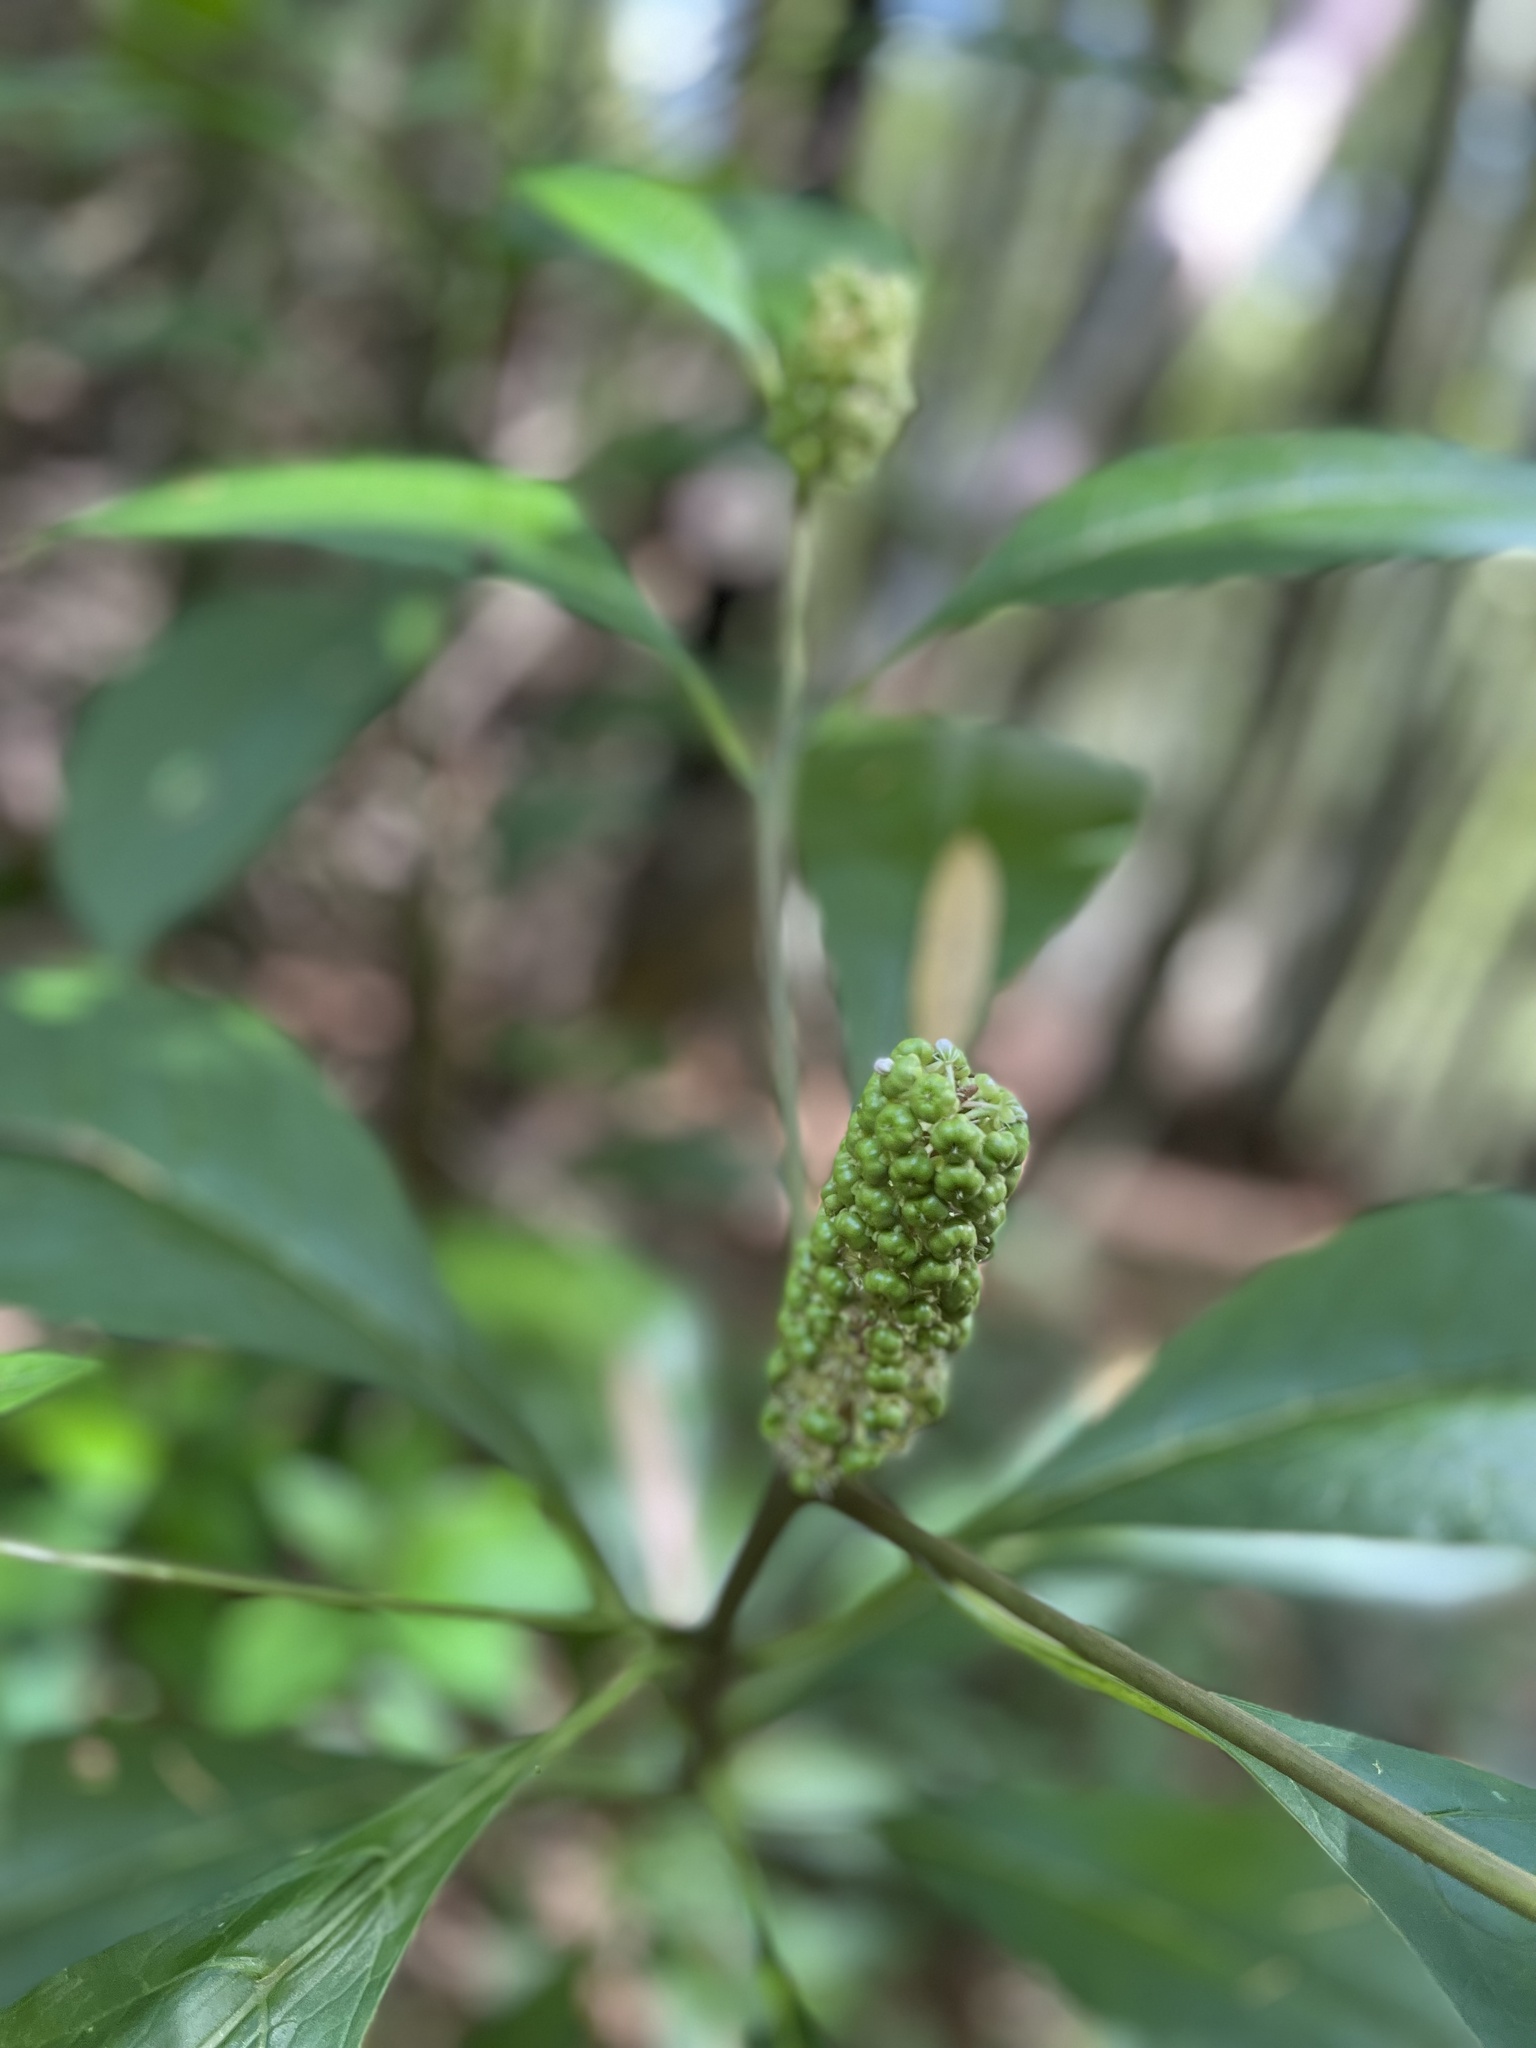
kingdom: Plantae
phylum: Tracheophyta
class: Magnoliopsida
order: Caryophyllales
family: Phytolaccaceae
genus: Phytolacca
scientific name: Phytolacca japonica
